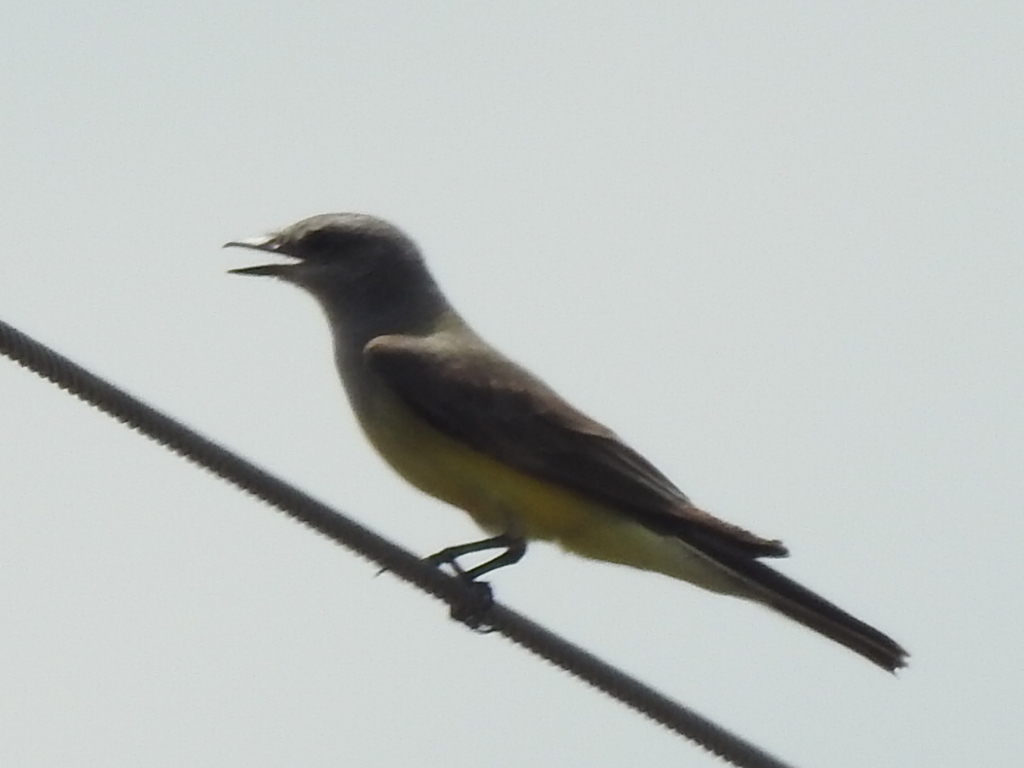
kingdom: Animalia
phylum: Chordata
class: Aves
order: Passeriformes
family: Tyrannidae
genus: Tyrannus
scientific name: Tyrannus verticalis
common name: Western kingbird
